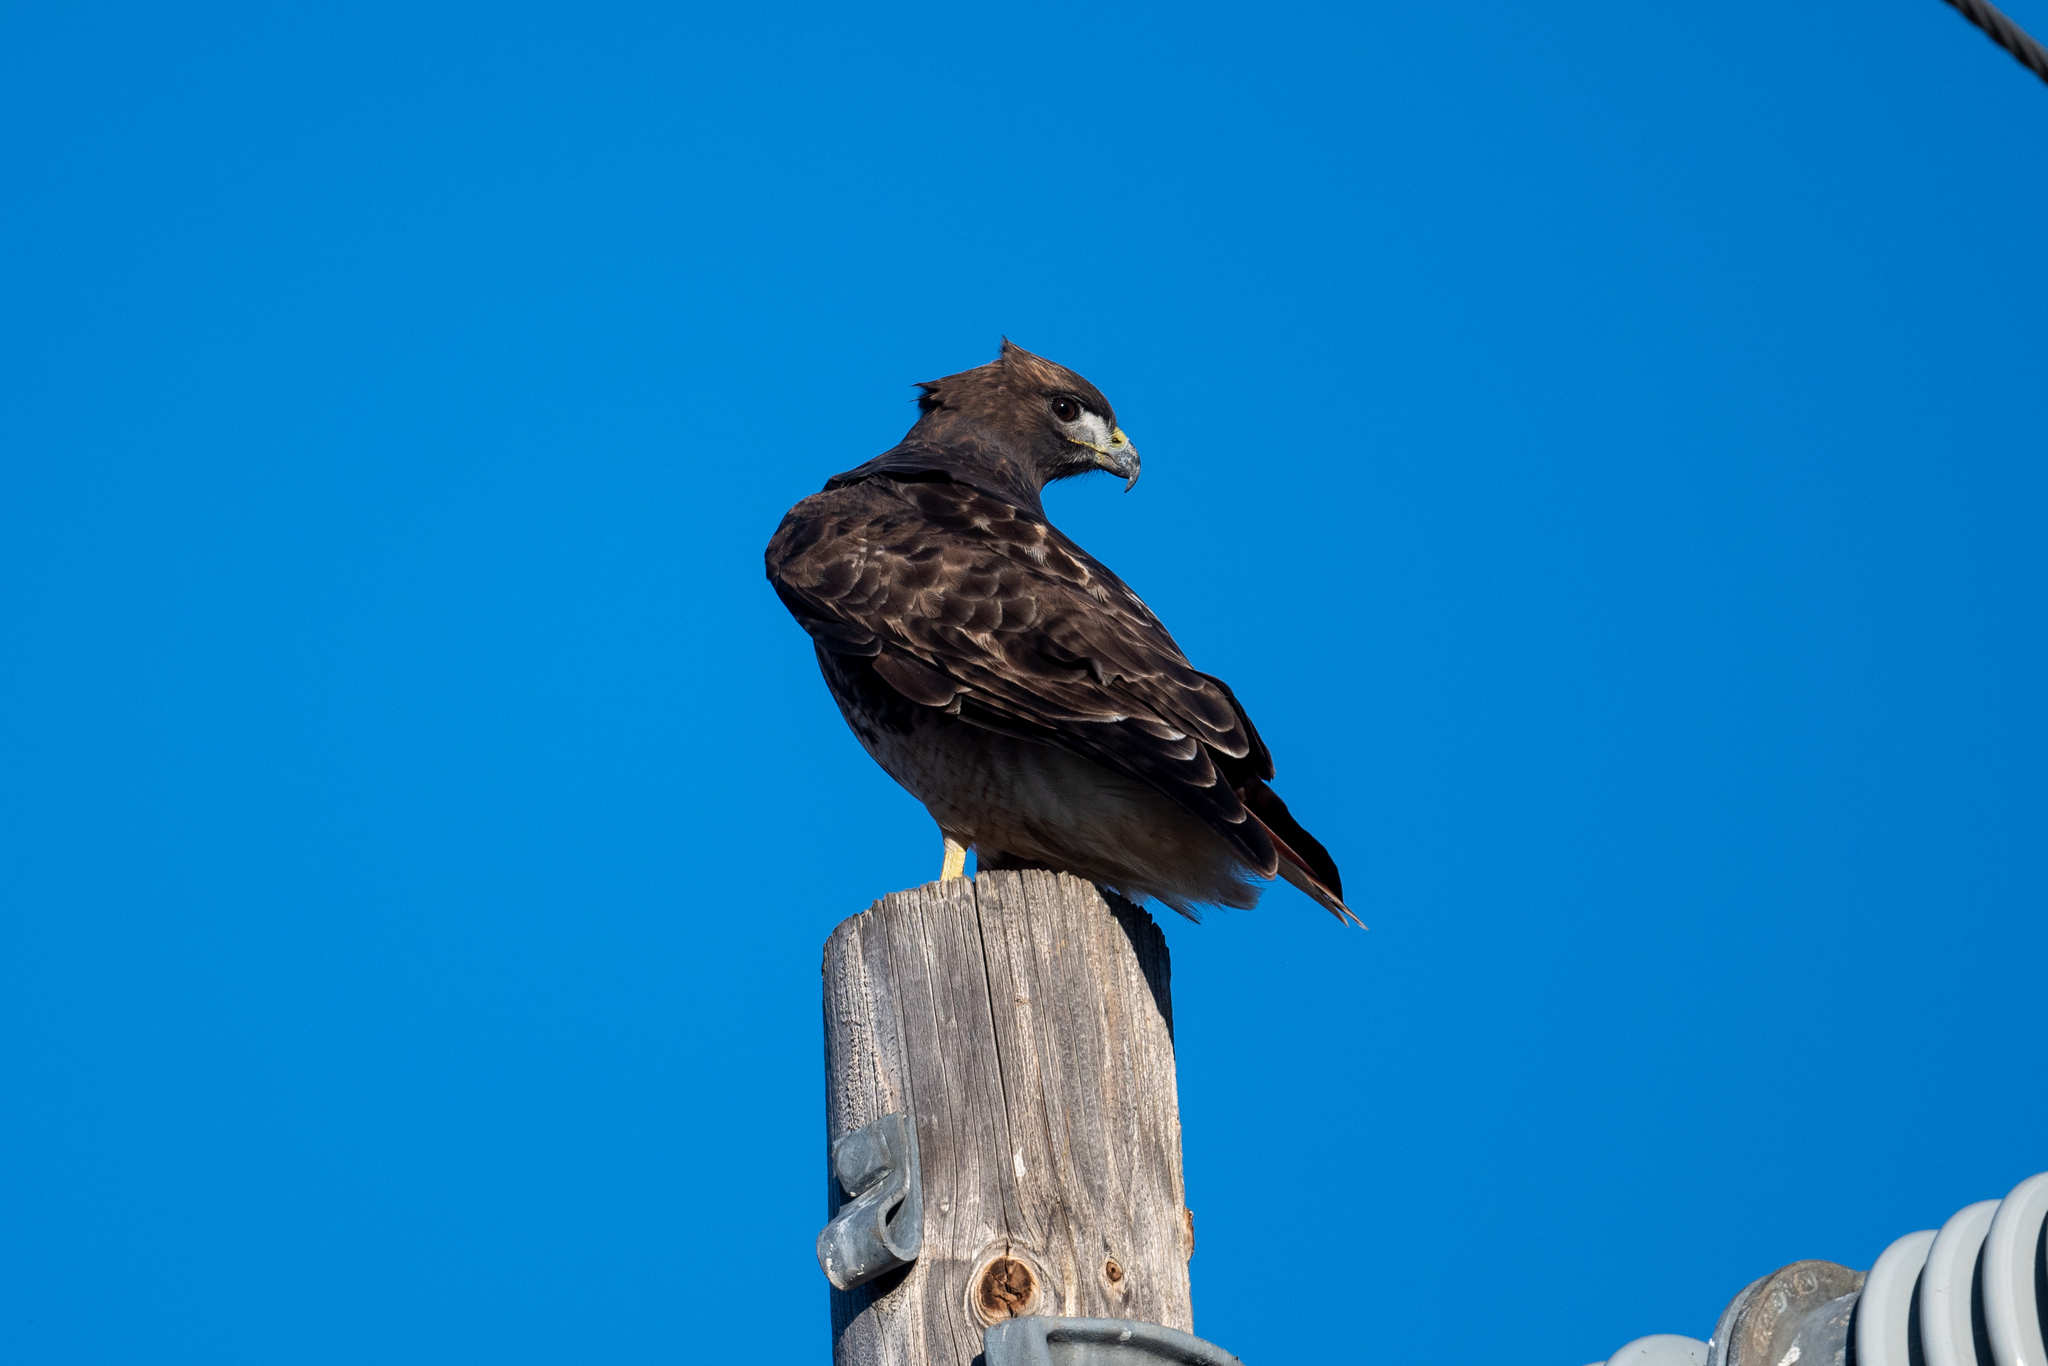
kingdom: Animalia
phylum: Chordata
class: Aves
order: Accipitriformes
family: Accipitridae
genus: Buteo
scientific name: Buteo jamaicensis
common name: Red-tailed hawk
